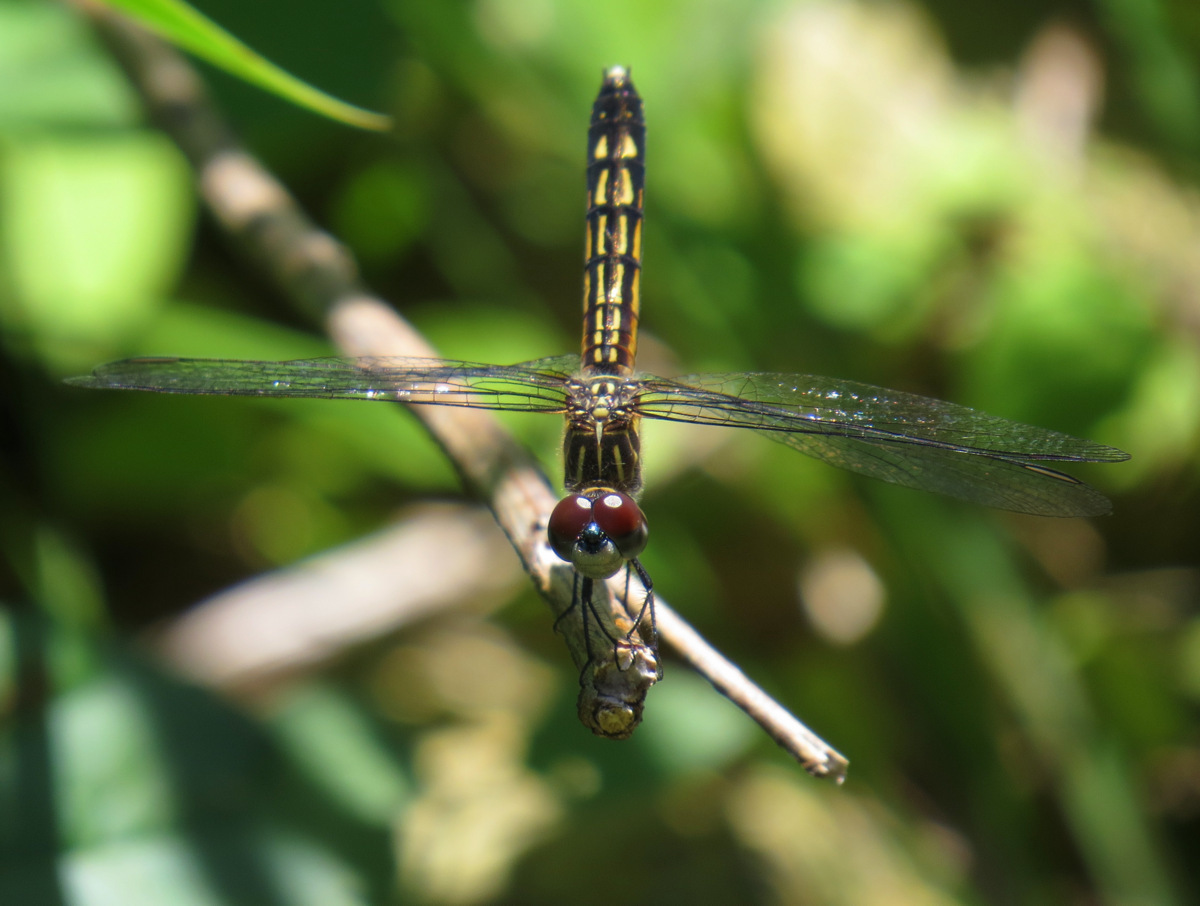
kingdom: Animalia
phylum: Arthropoda
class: Insecta
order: Odonata
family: Libellulidae
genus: Pachydiplax
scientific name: Pachydiplax longipennis
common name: Blue dasher
